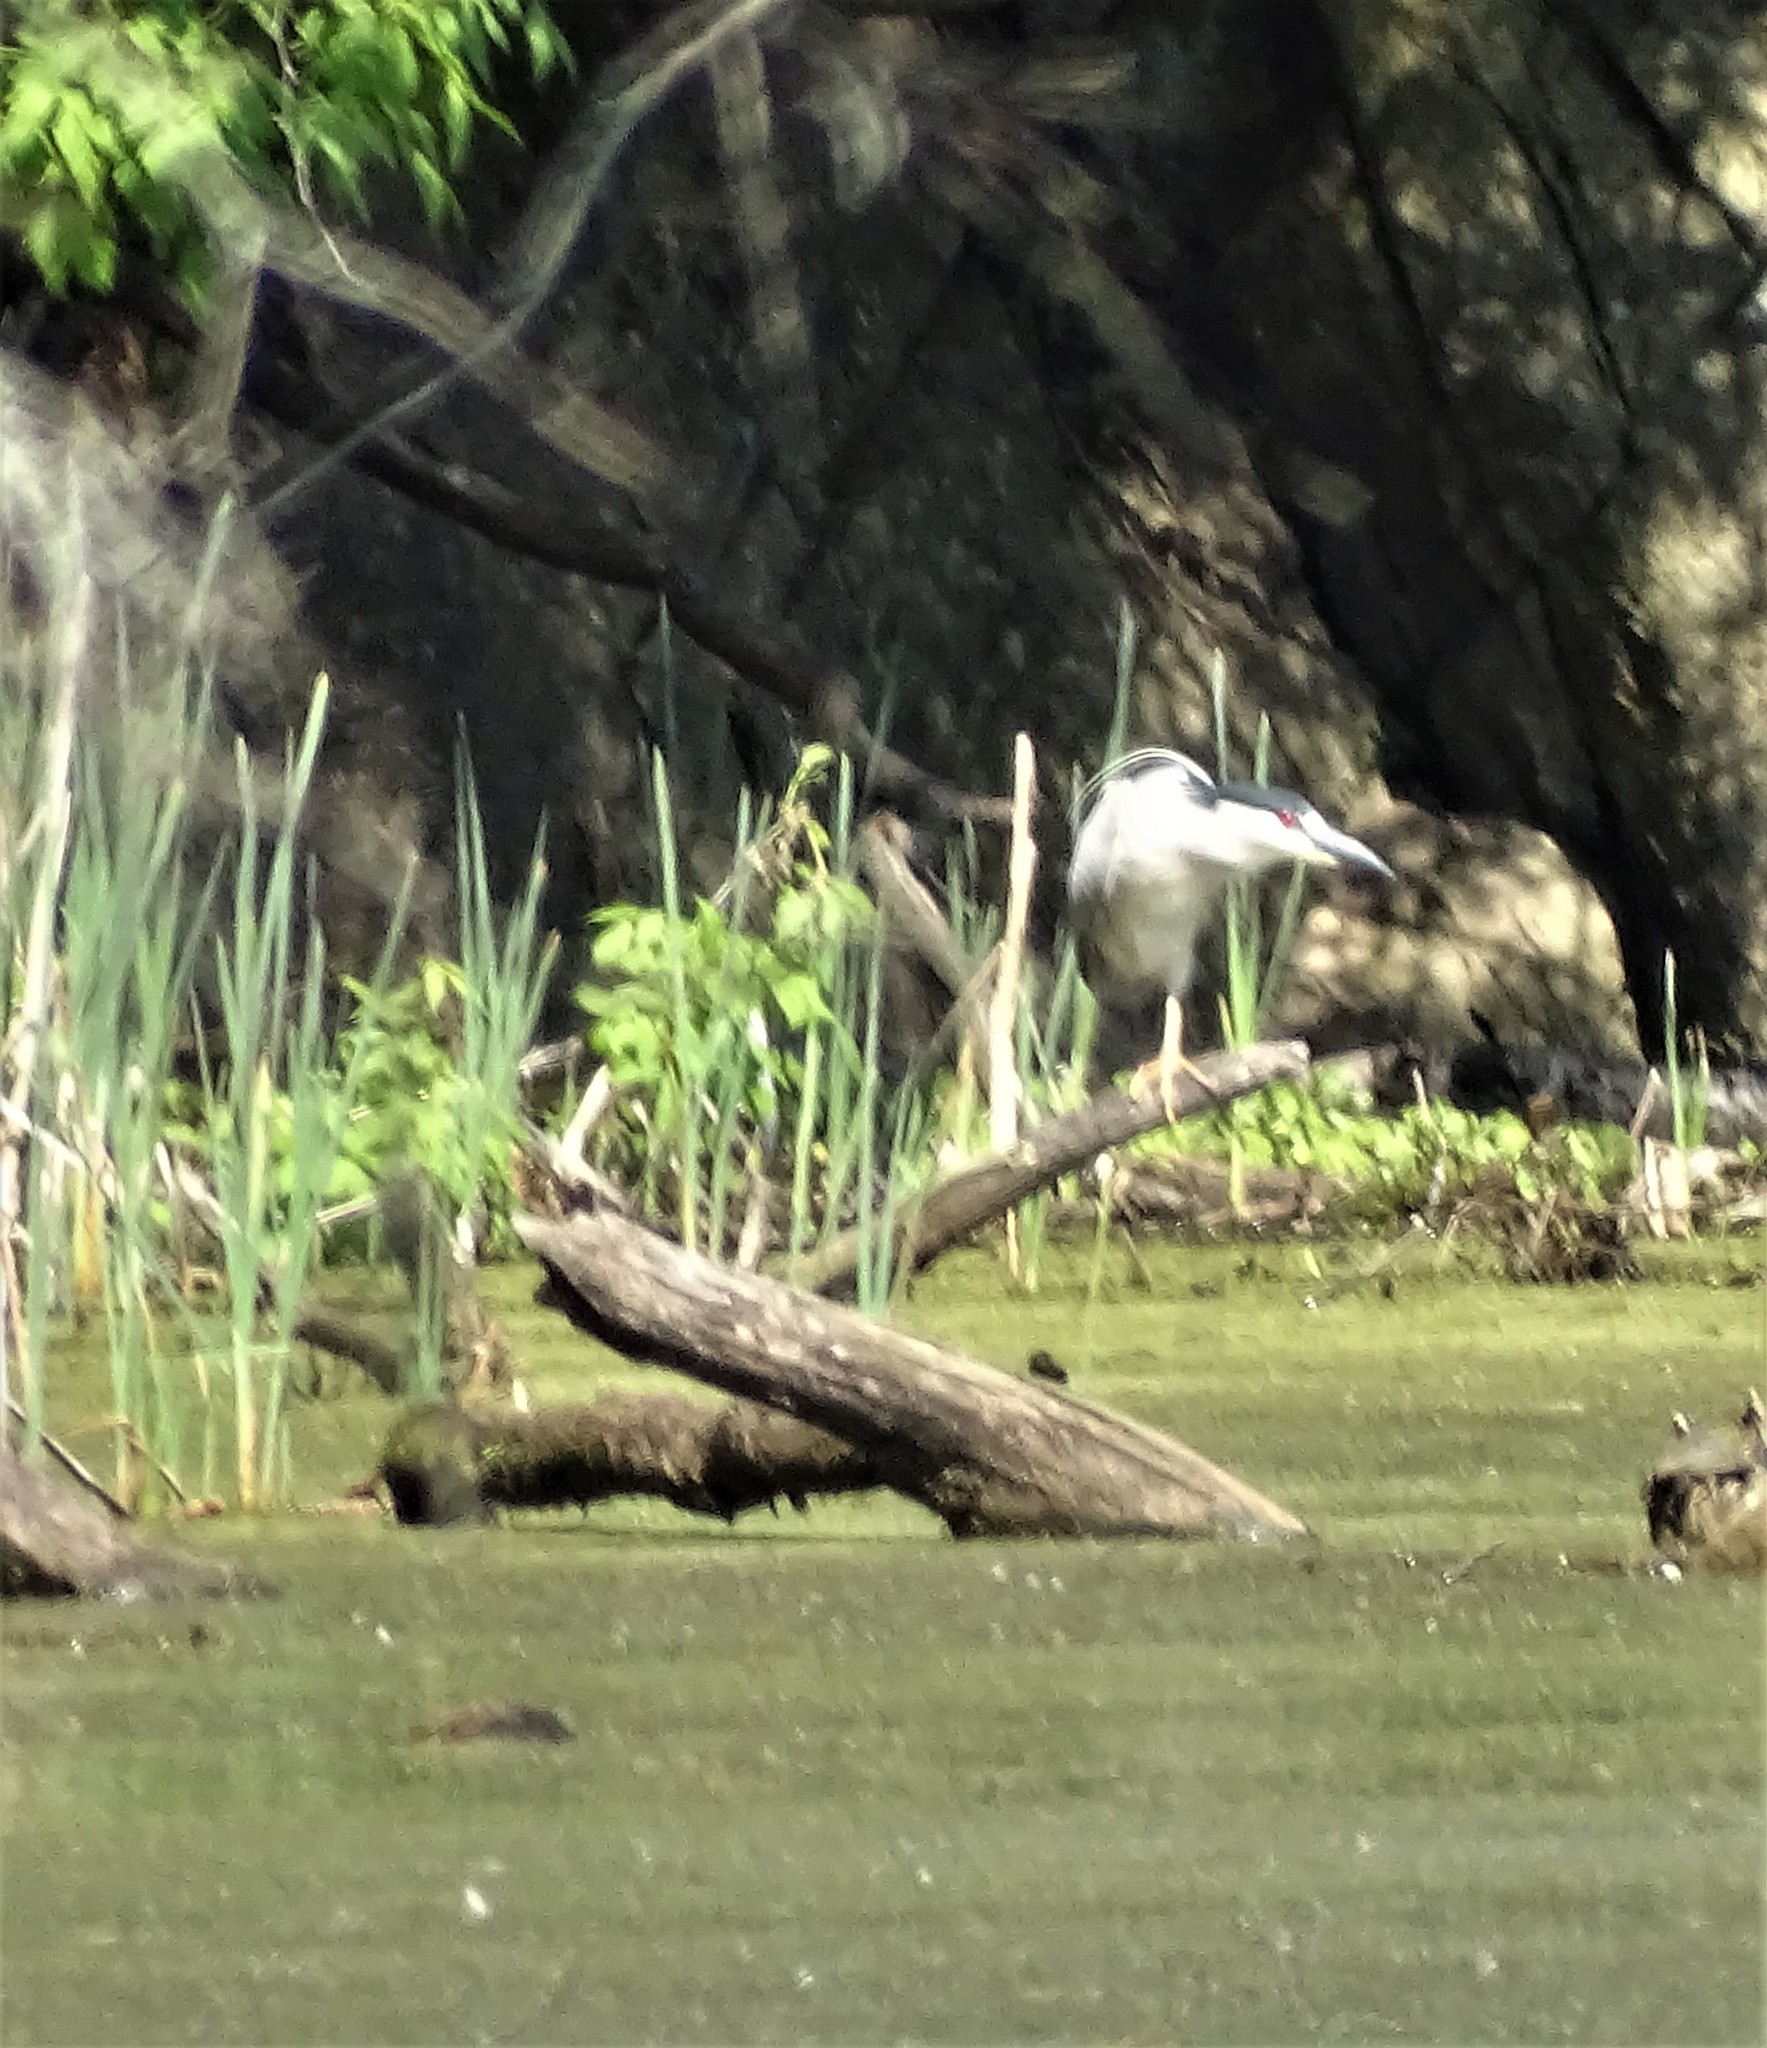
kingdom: Animalia
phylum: Chordata
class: Aves
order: Pelecaniformes
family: Ardeidae
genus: Nycticorax
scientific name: Nycticorax nycticorax
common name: Black-crowned night heron
